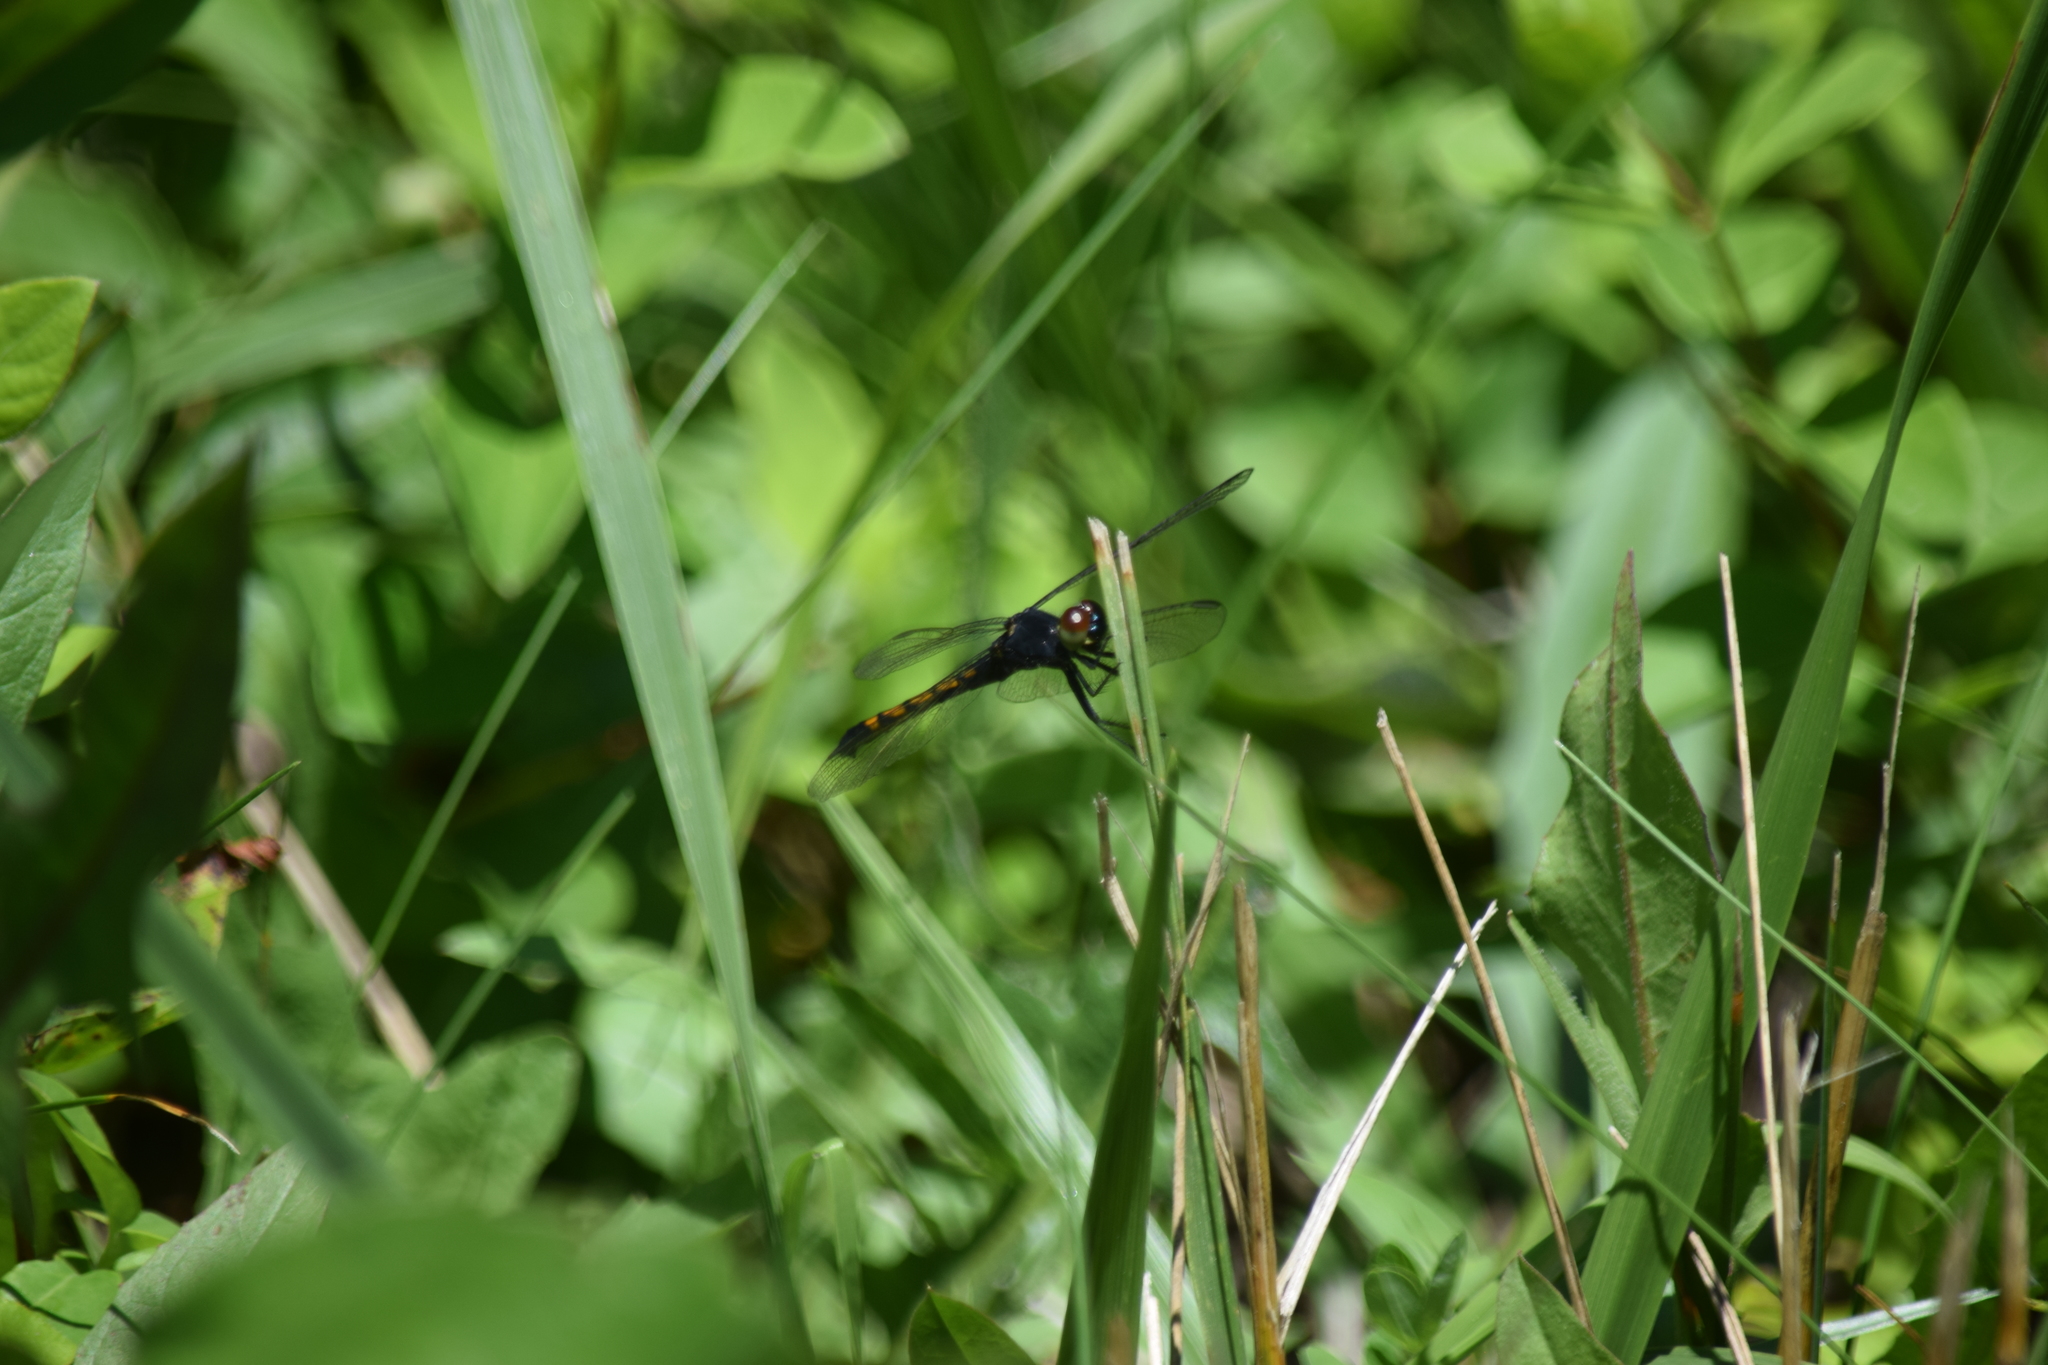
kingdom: Animalia
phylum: Arthropoda
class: Insecta
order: Odonata
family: Libellulidae
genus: Erythrodiplax
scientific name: Erythrodiplax berenice
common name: Seaside dragonlet
